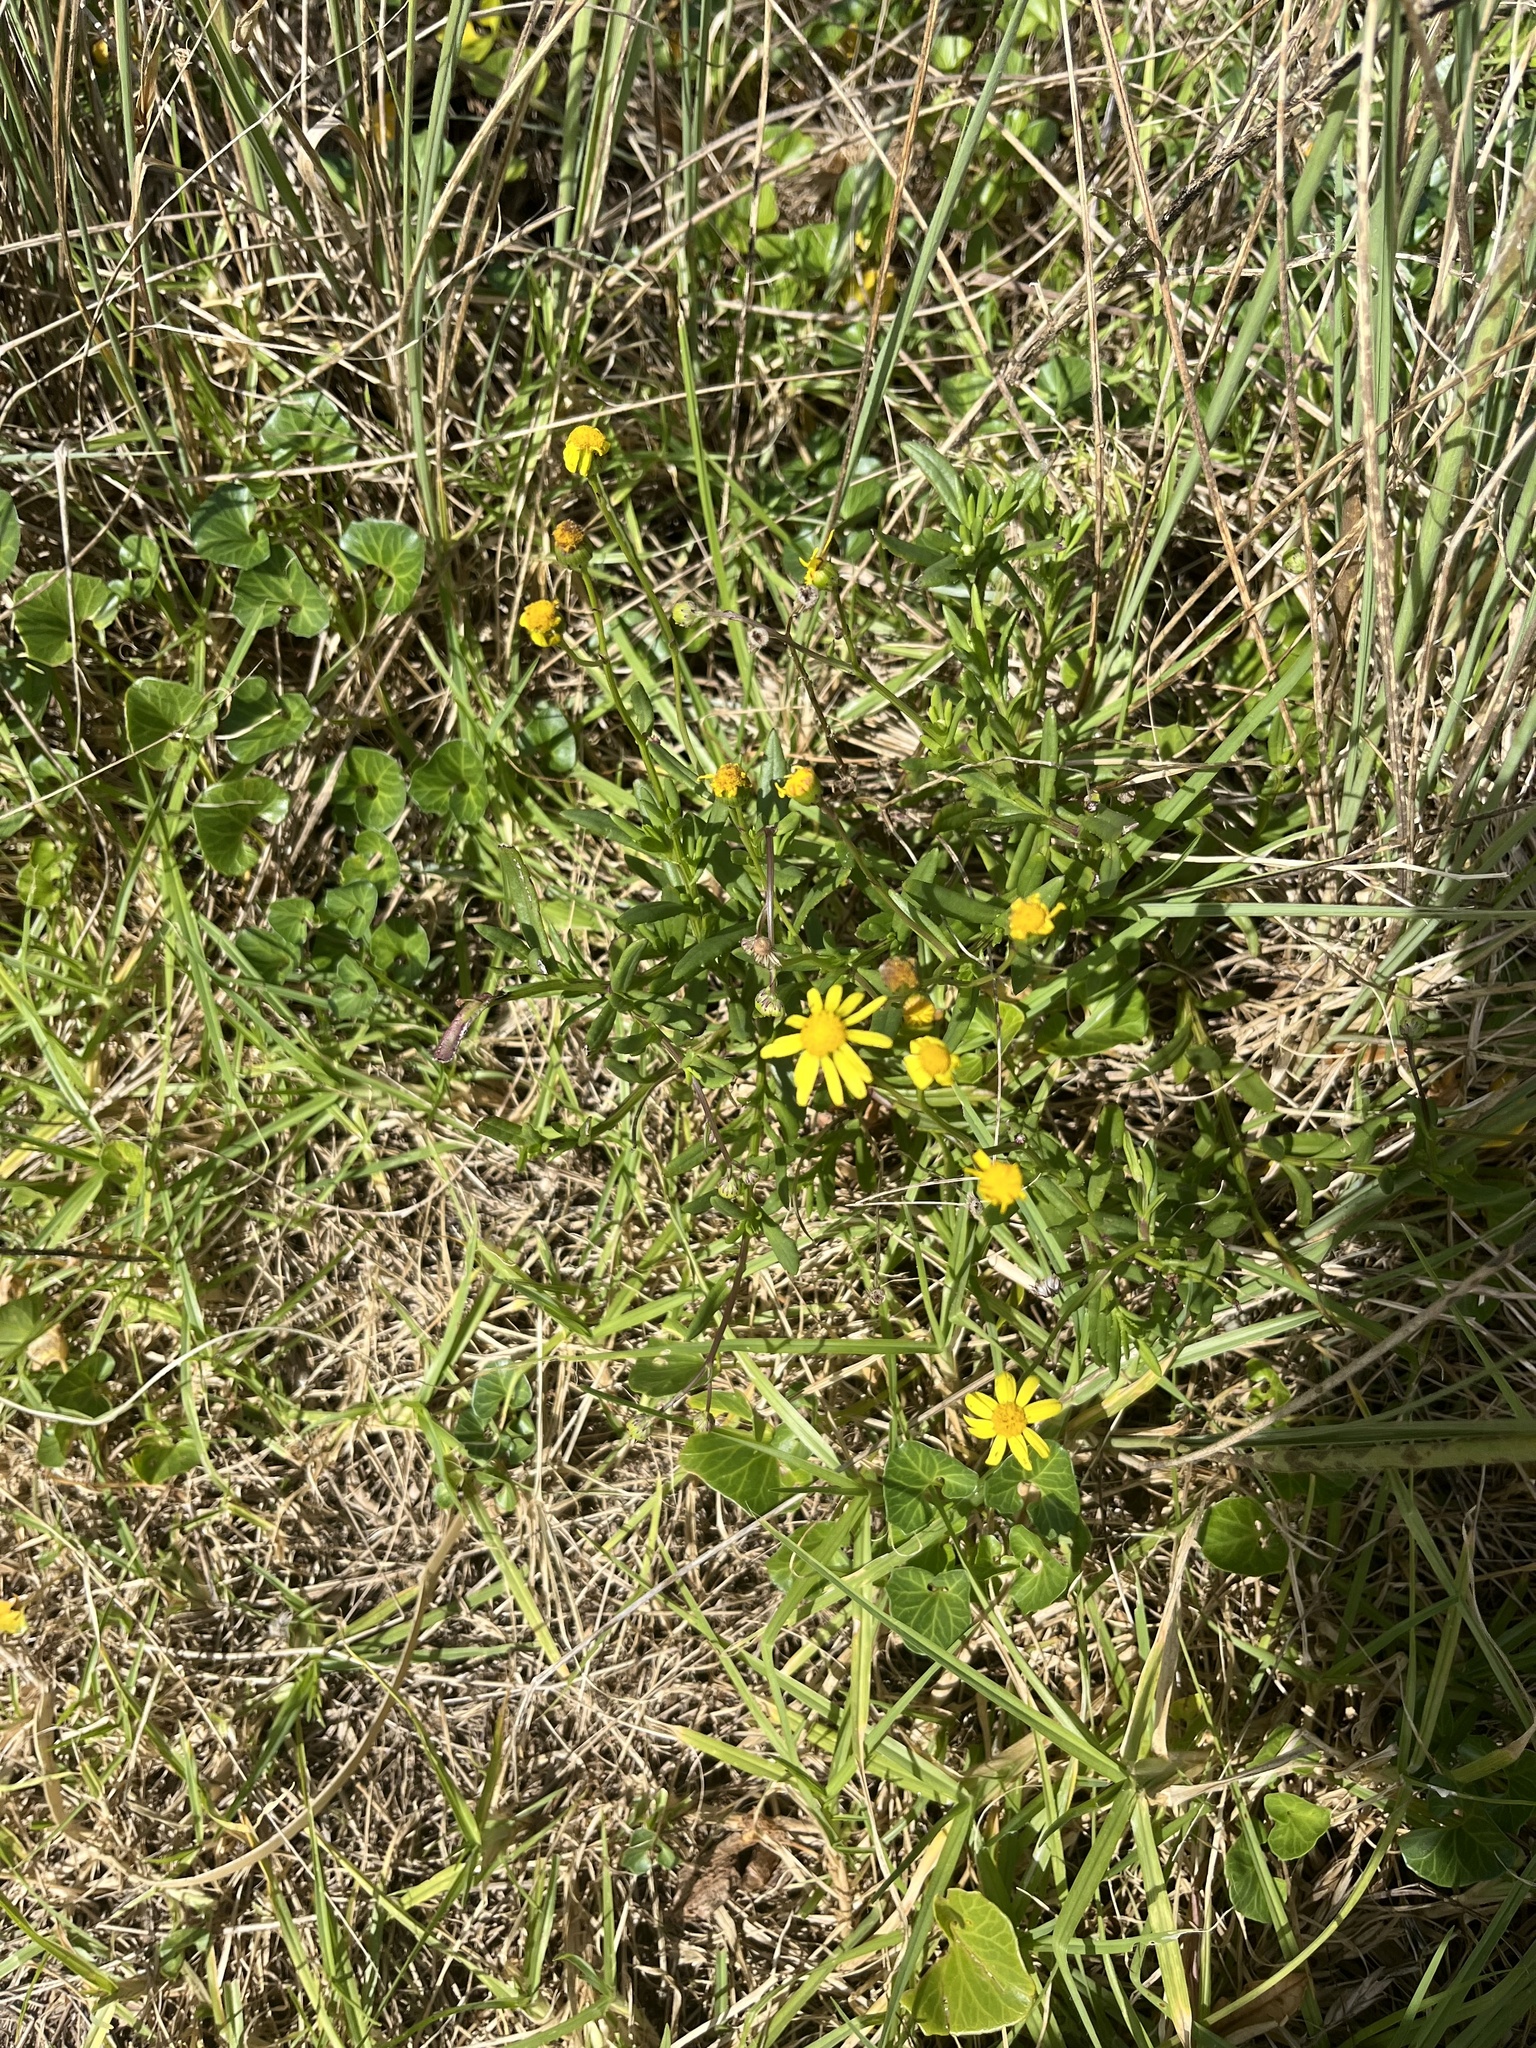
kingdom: Plantae
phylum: Tracheophyta
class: Magnoliopsida
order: Asterales
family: Asteraceae
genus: Senecio
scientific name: Senecio skirrhodon
